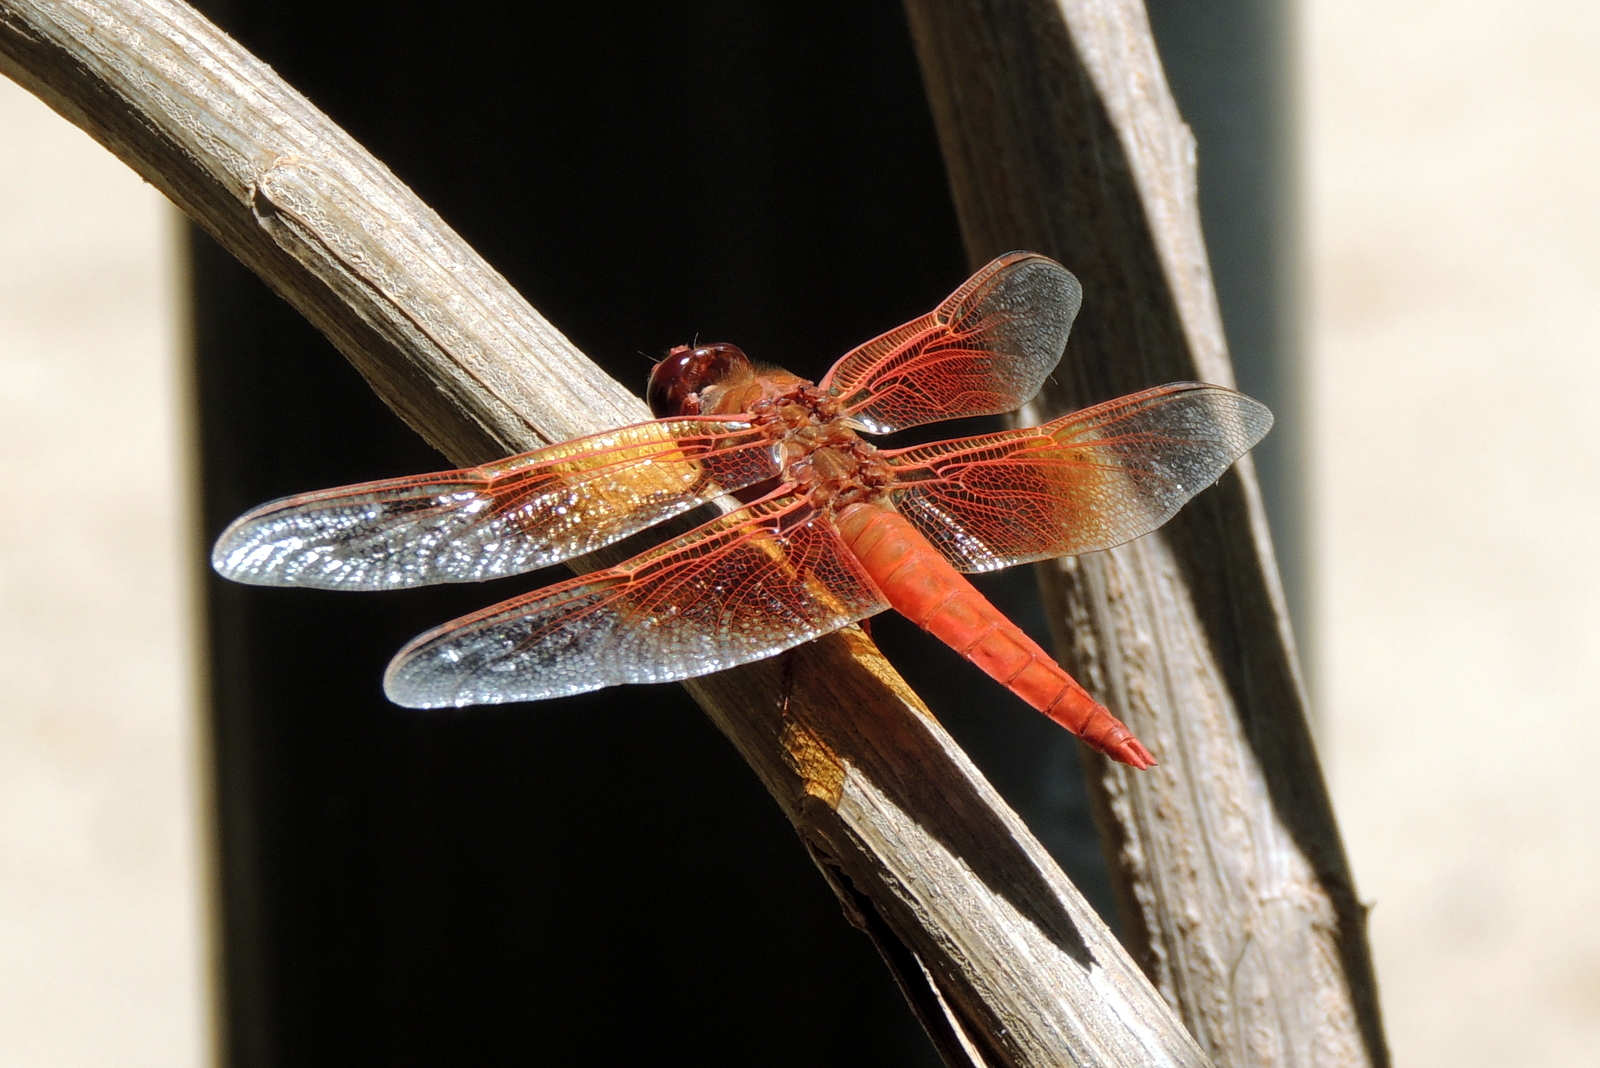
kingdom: Animalia
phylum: Arthropoda
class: Insecta
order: Odonata
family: Libellulidae
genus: Libellula
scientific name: Libellula saturata
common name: Flame skimmer
